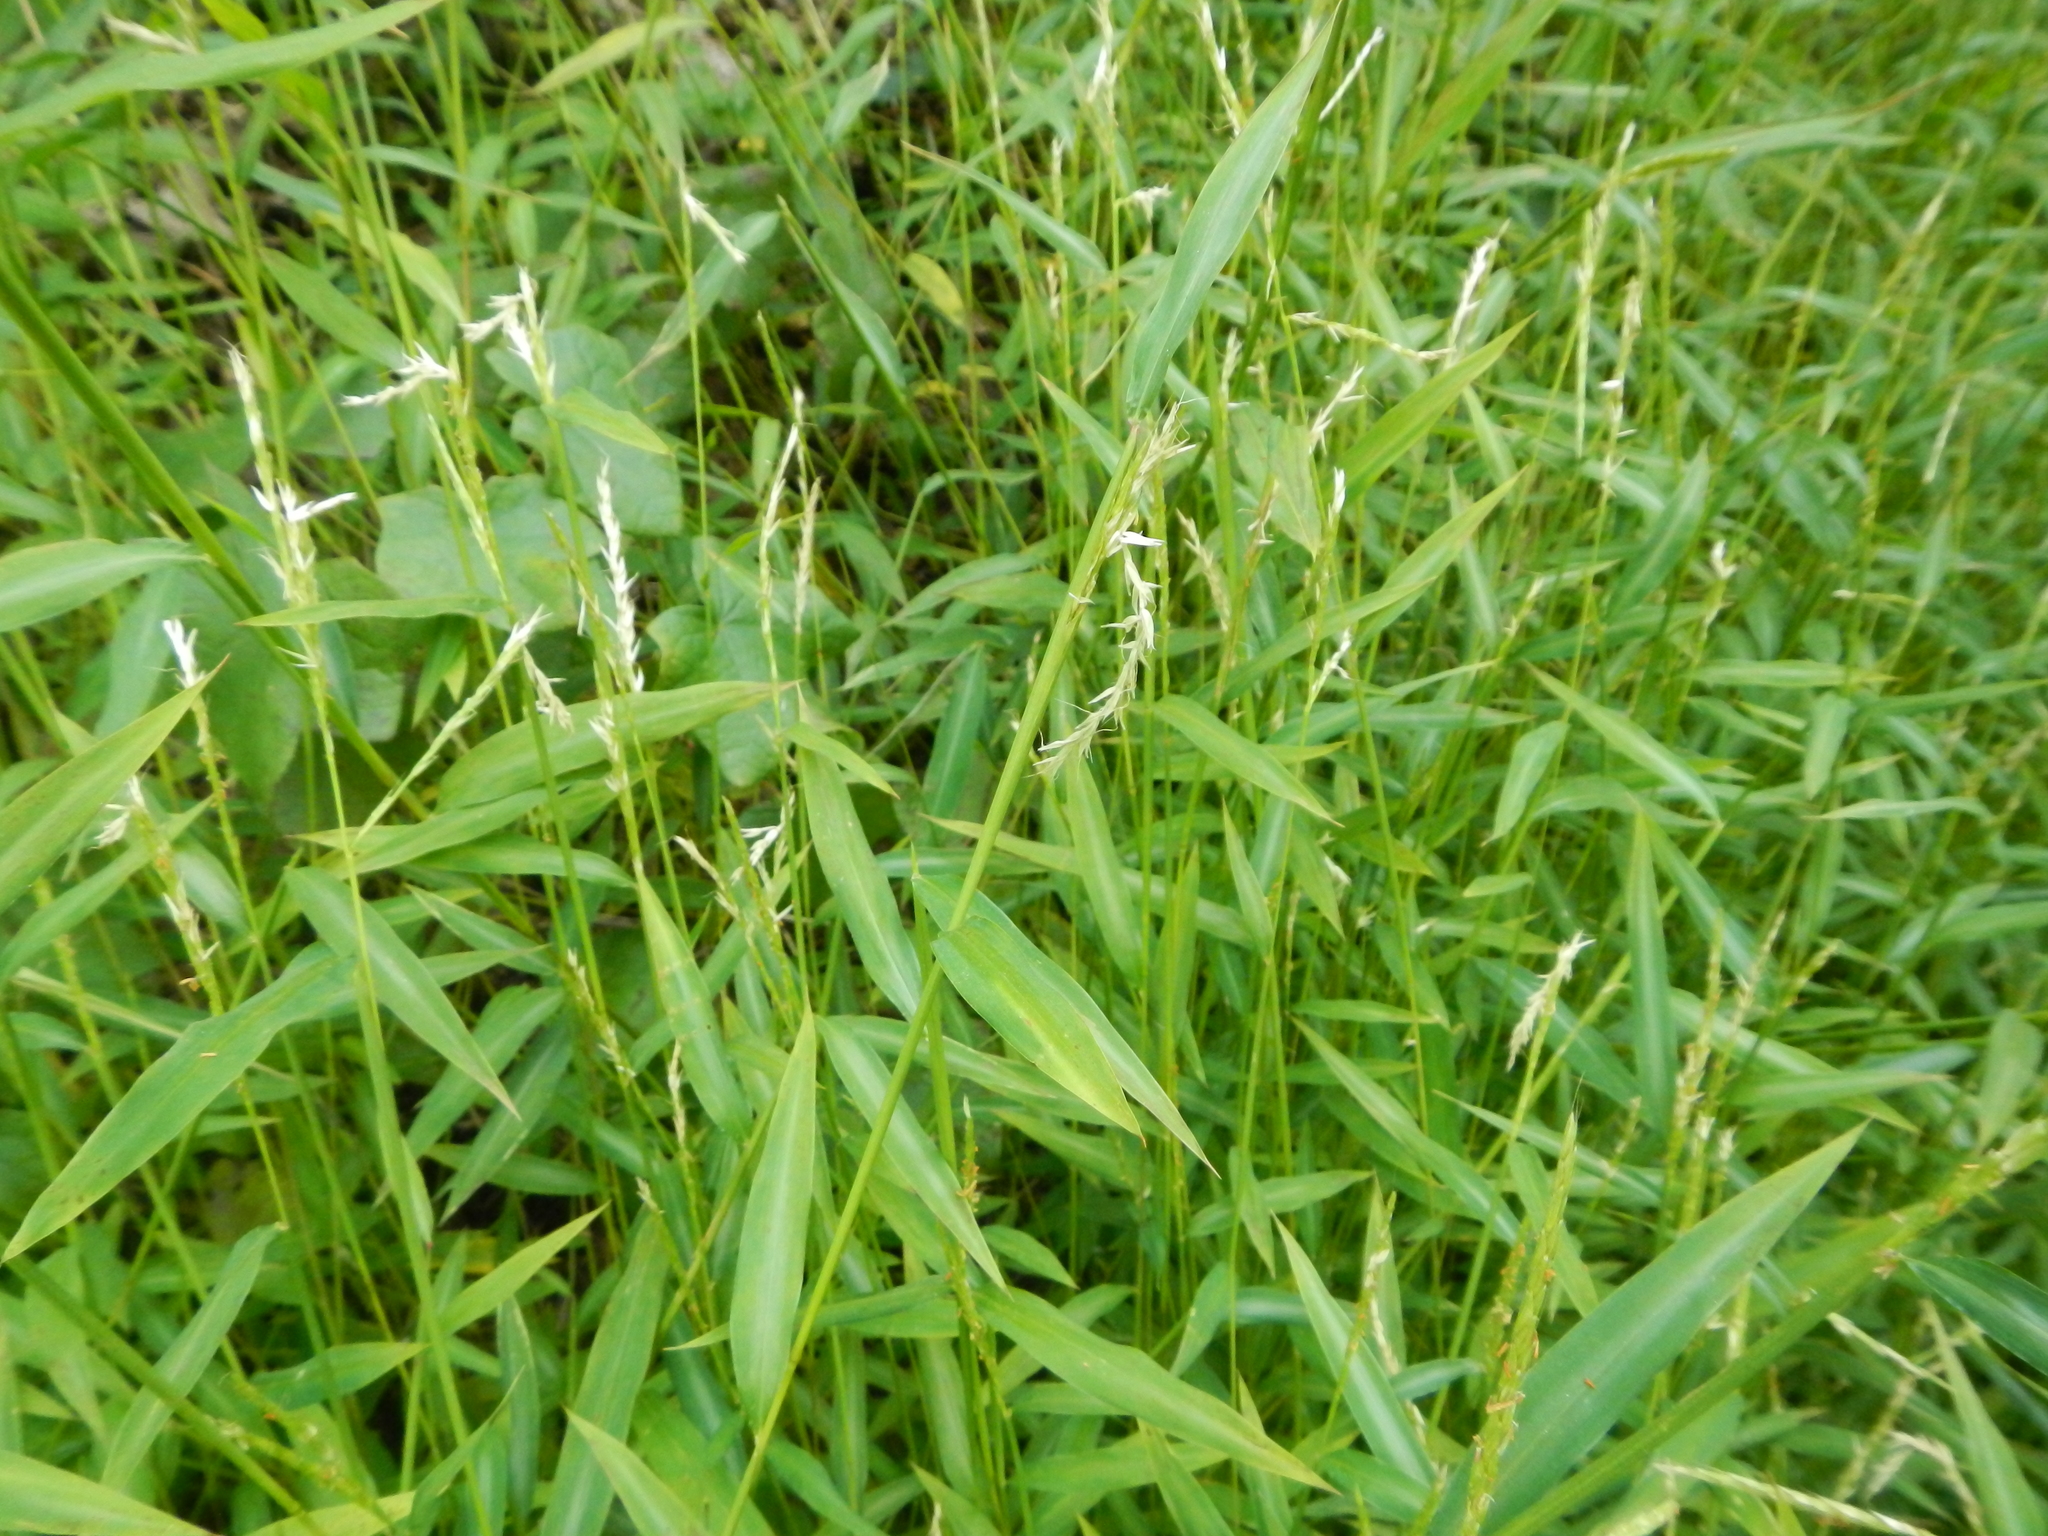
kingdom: Plantae
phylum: Tracheophyta
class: Liliopsida
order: Poales
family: Poaceae
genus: Microstegium
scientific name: Microstegium vimineum
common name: Japanese stiltgrass
